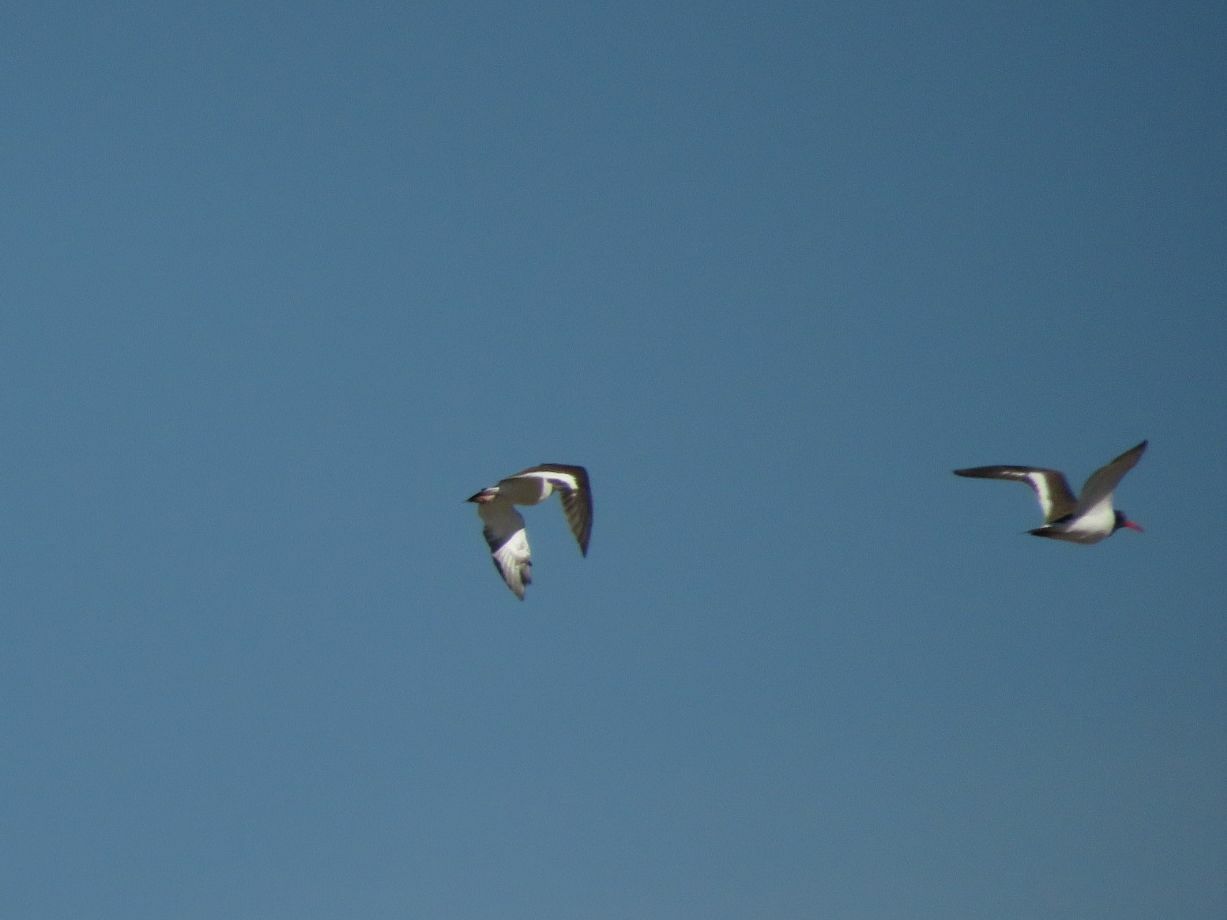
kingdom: Animalia
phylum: Chordata
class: Aves
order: Charadriiformes
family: Haematopodidae
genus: Haematopus
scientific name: Haematopus palliatus
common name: American oystercatcher
